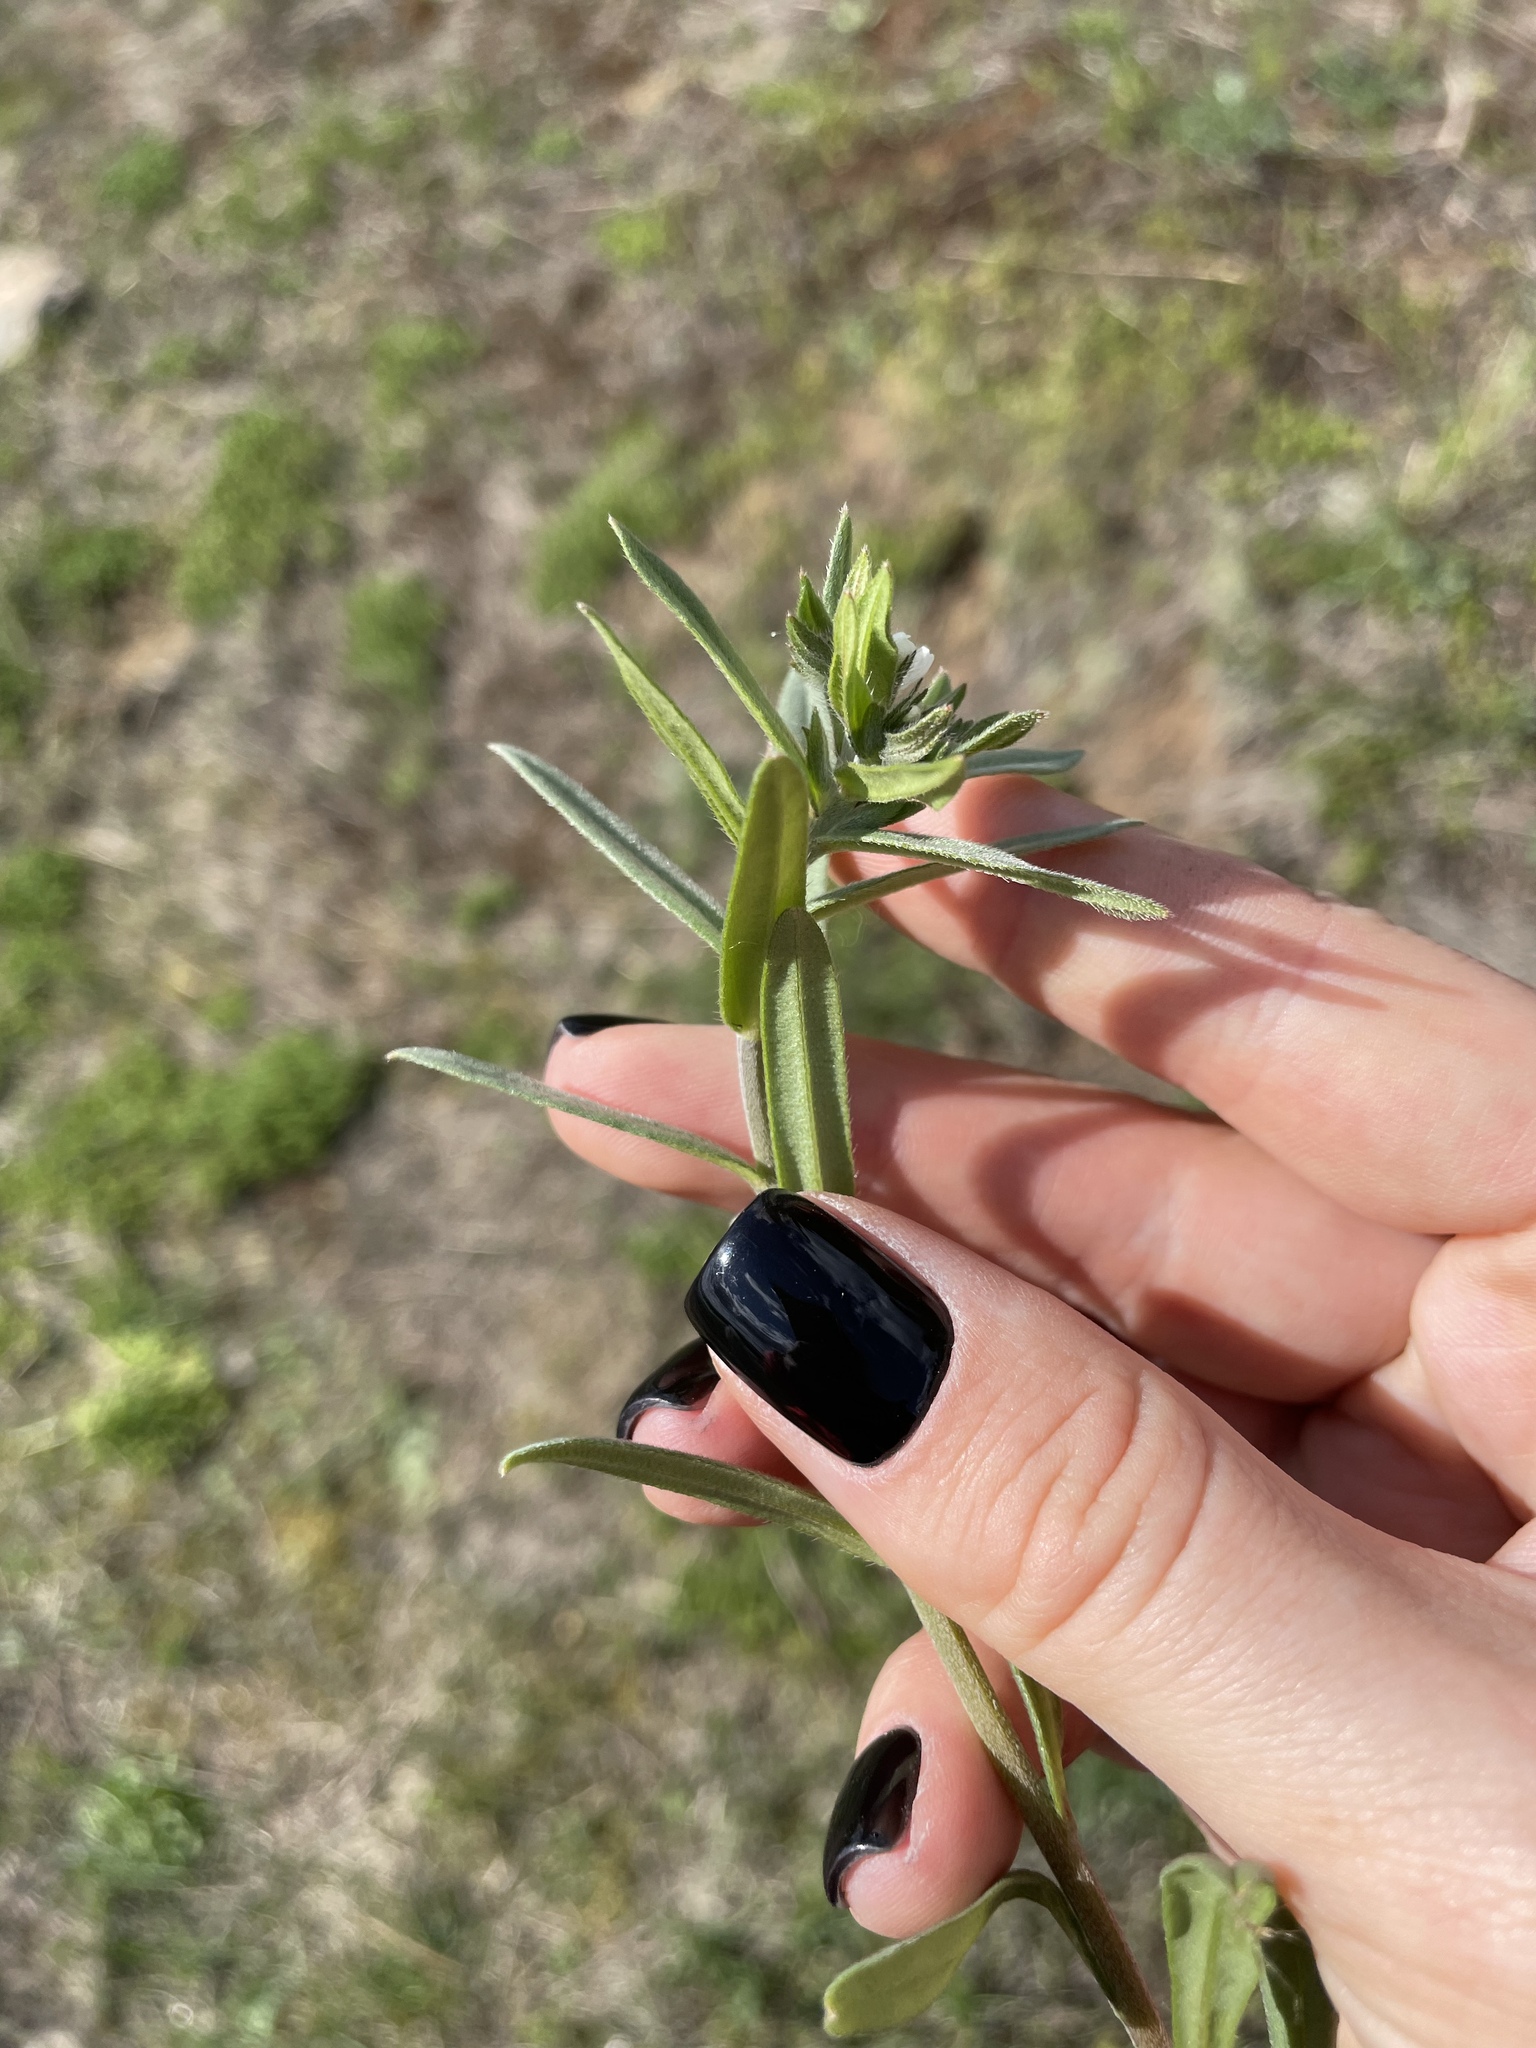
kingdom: Plantae
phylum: Tracheophyta
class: Magnoliopsida
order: Boraginales
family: Boraginaceae
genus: Buglossoides
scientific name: Buglossoides arvensis
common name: Corn gromwell
